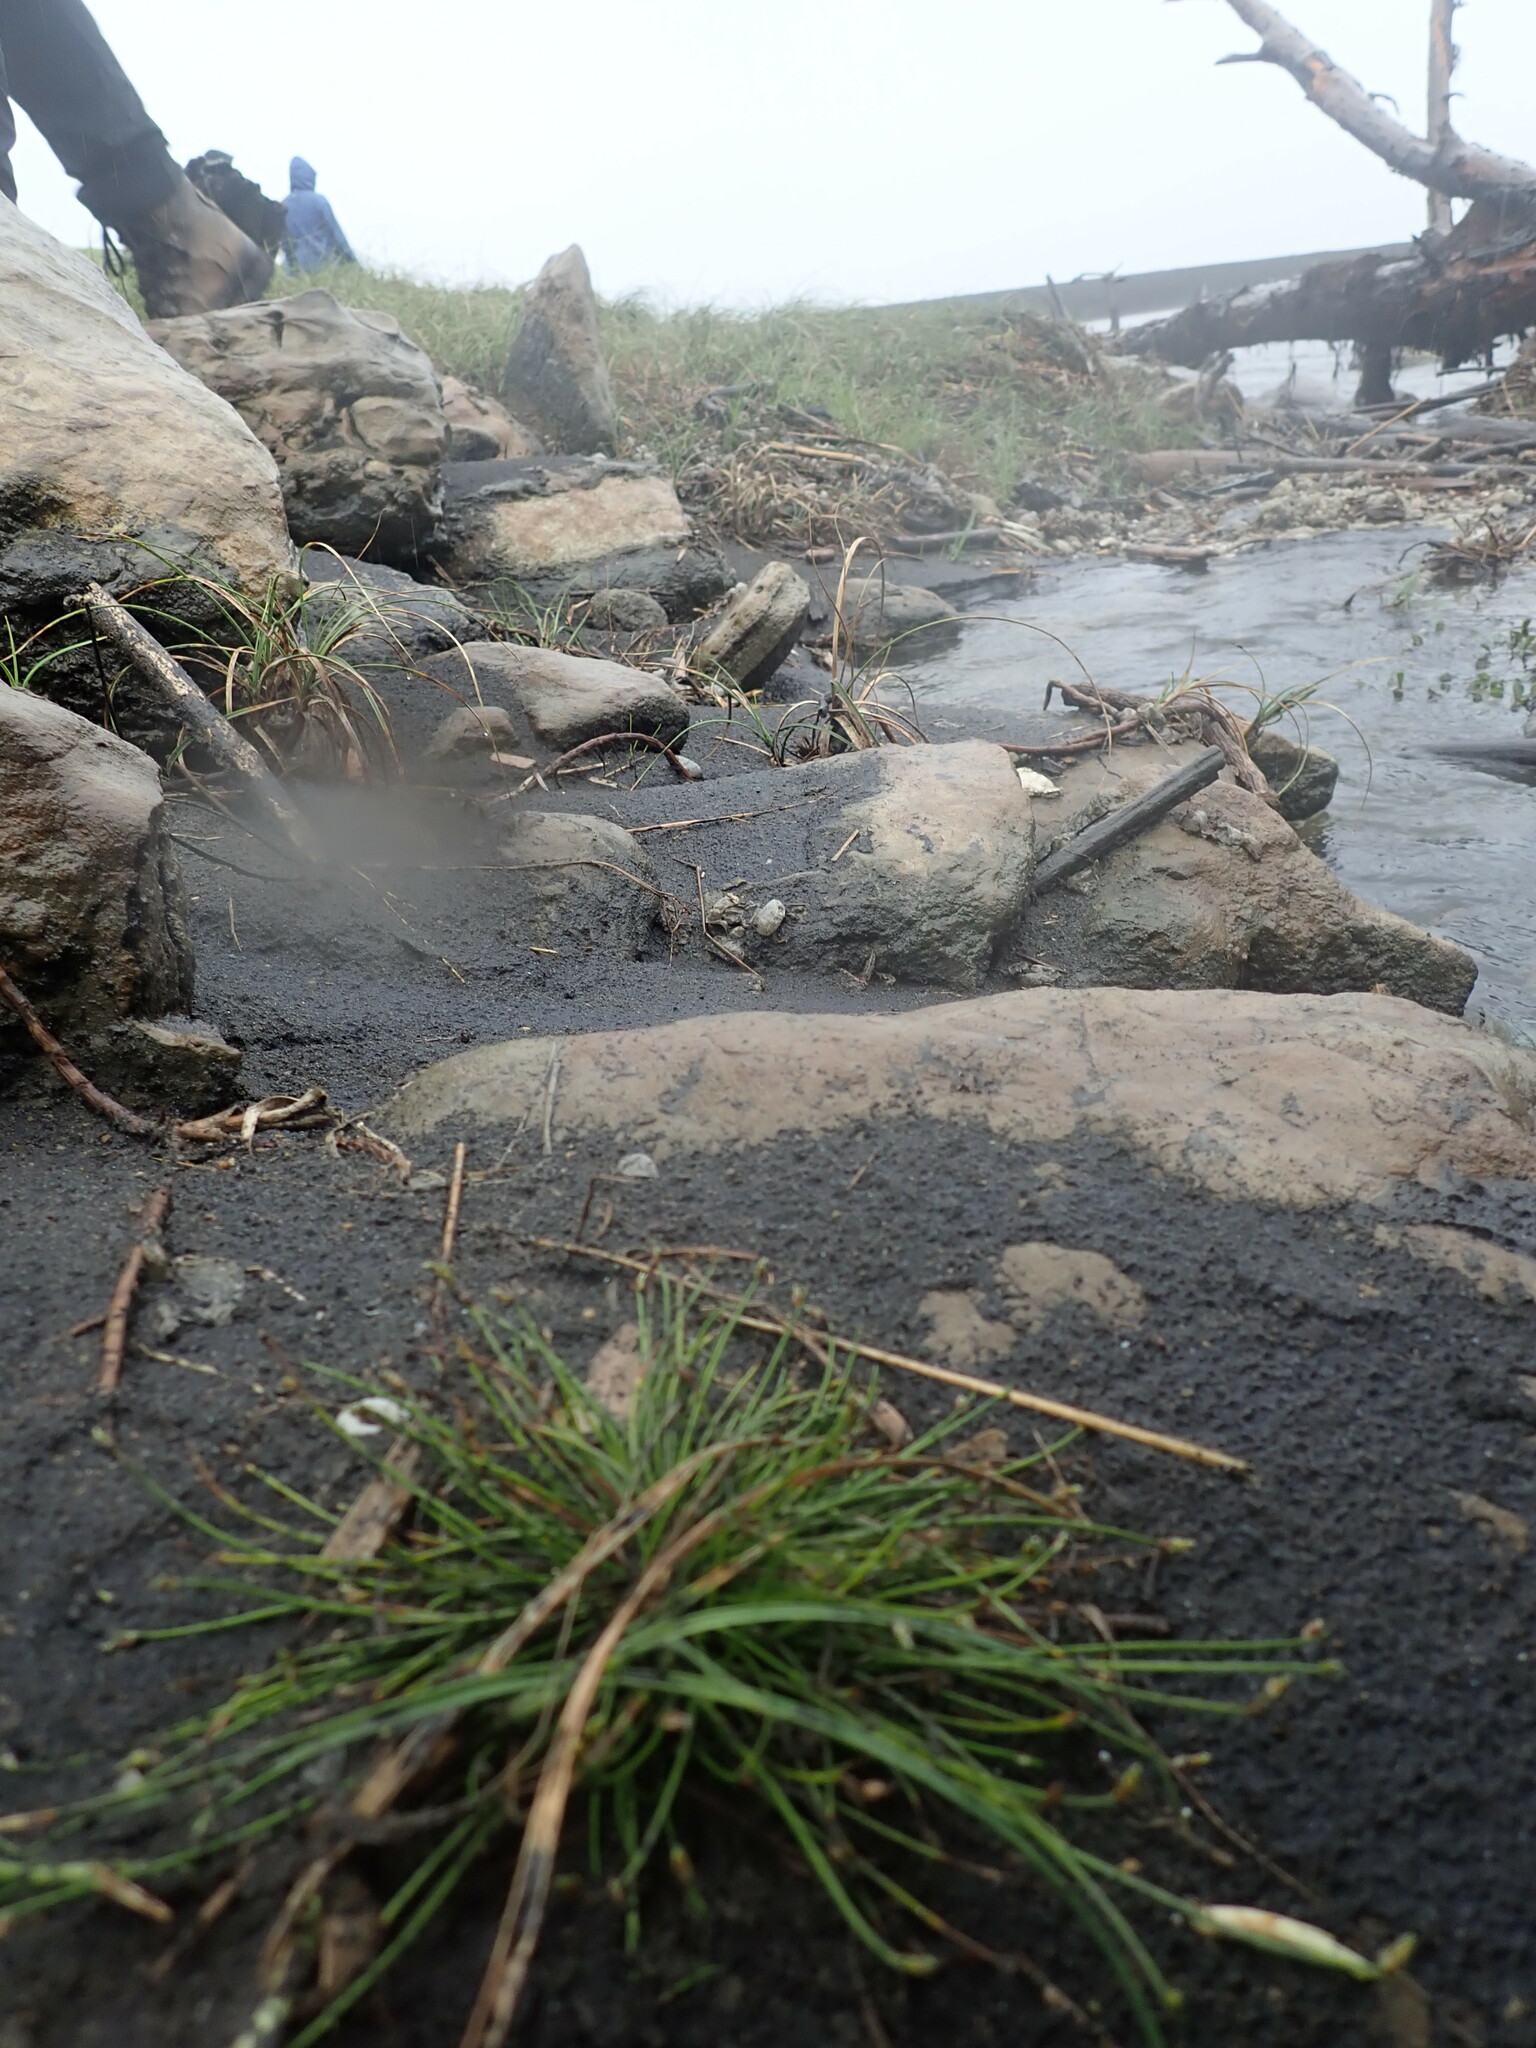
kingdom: Plantae
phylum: Tracheophyta
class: Liliopsida
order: Poales
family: Cyperaceae
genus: Isolepis
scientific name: Isolepis cernua
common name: Slender club-rush
